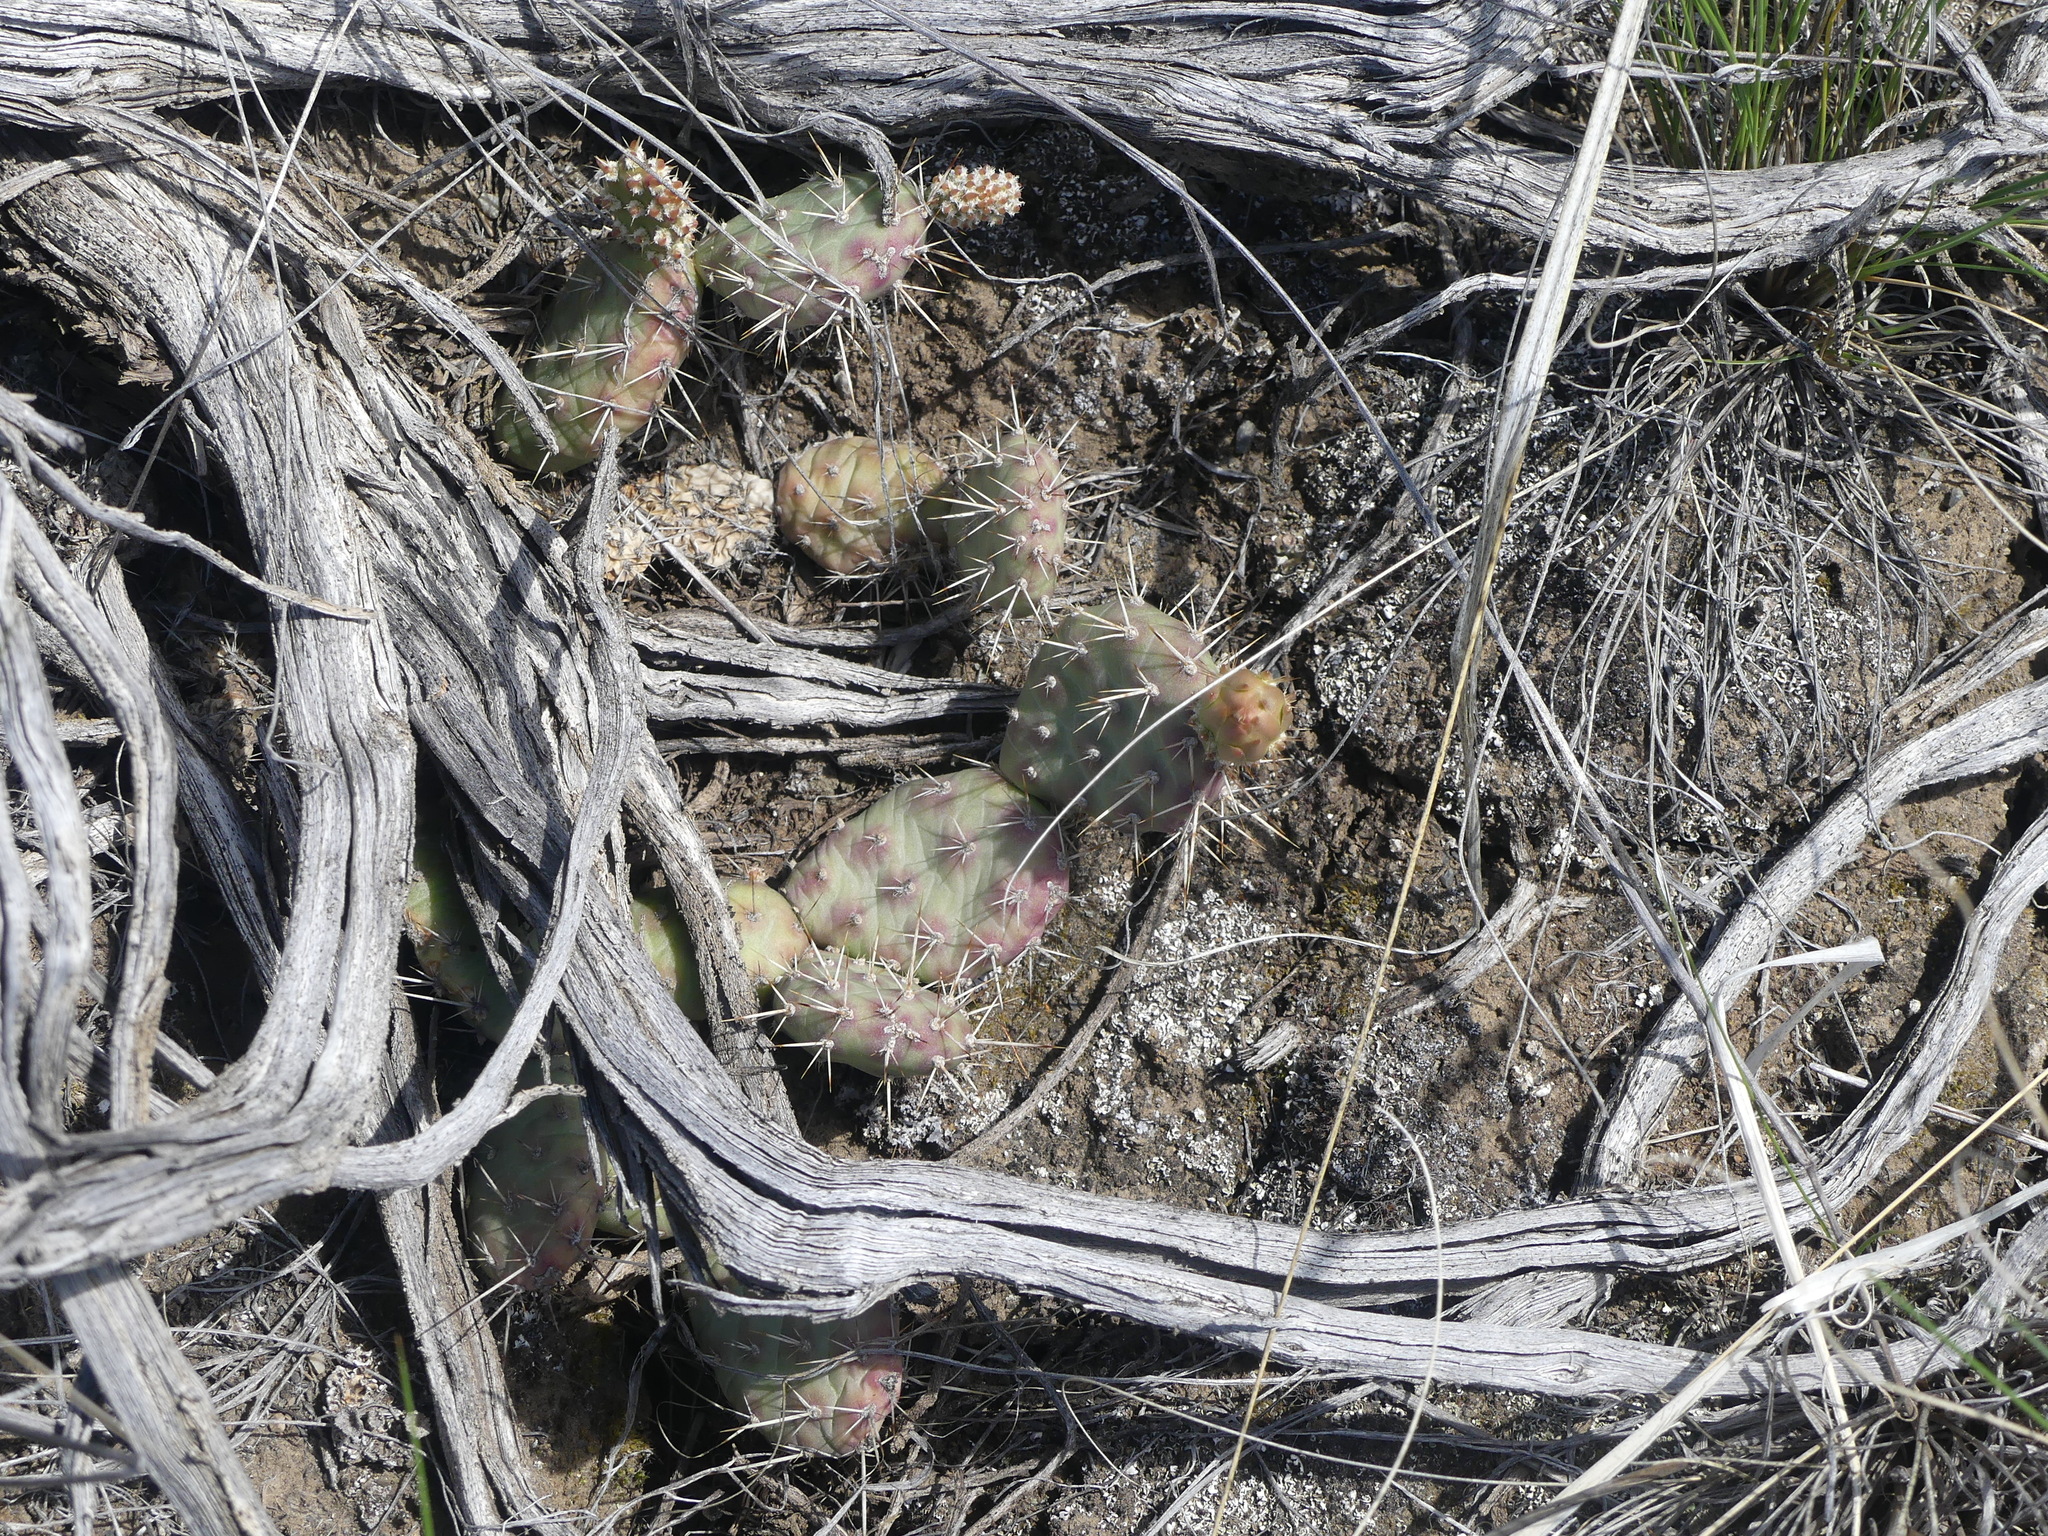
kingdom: Plantae
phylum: Tracheophyta
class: Magnoliopsida
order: Caryophyllales
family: Cactaceae
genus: Opuntia
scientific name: Opuntia fragilis
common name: Brittle cactus
